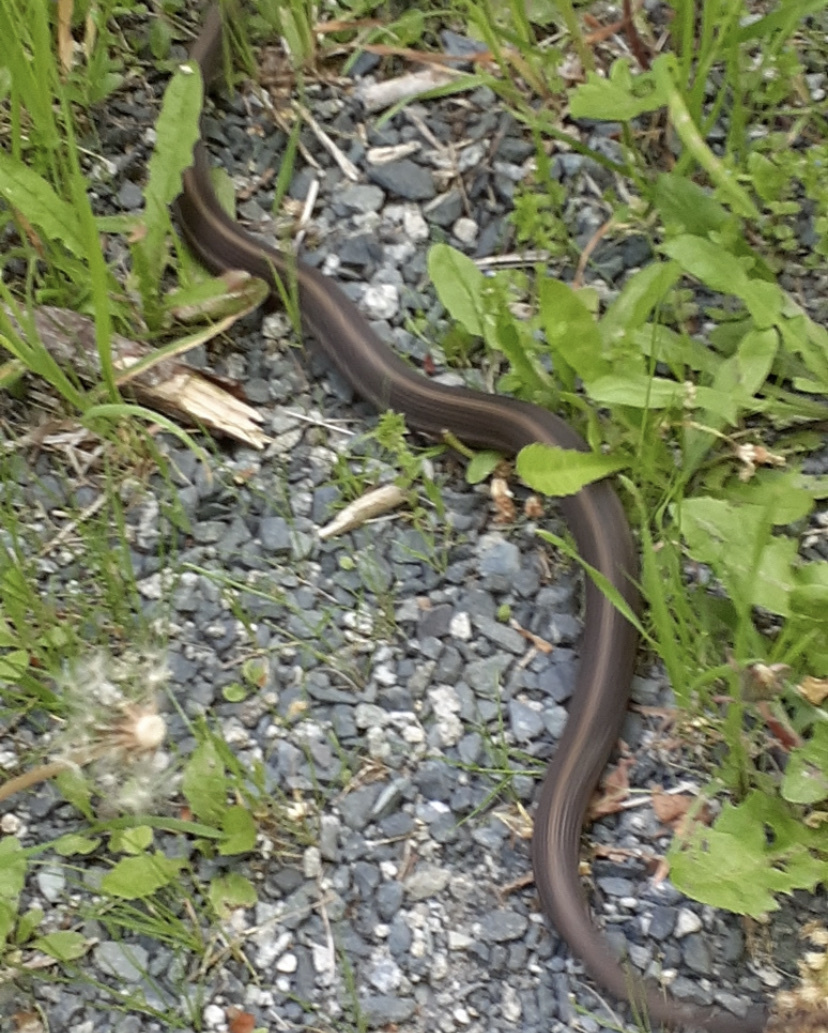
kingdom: Animalia
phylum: Chordata
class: Squamata
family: Colubridae
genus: Thamnophis
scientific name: Thamnophis ordinoides
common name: Northwestern garter snake
